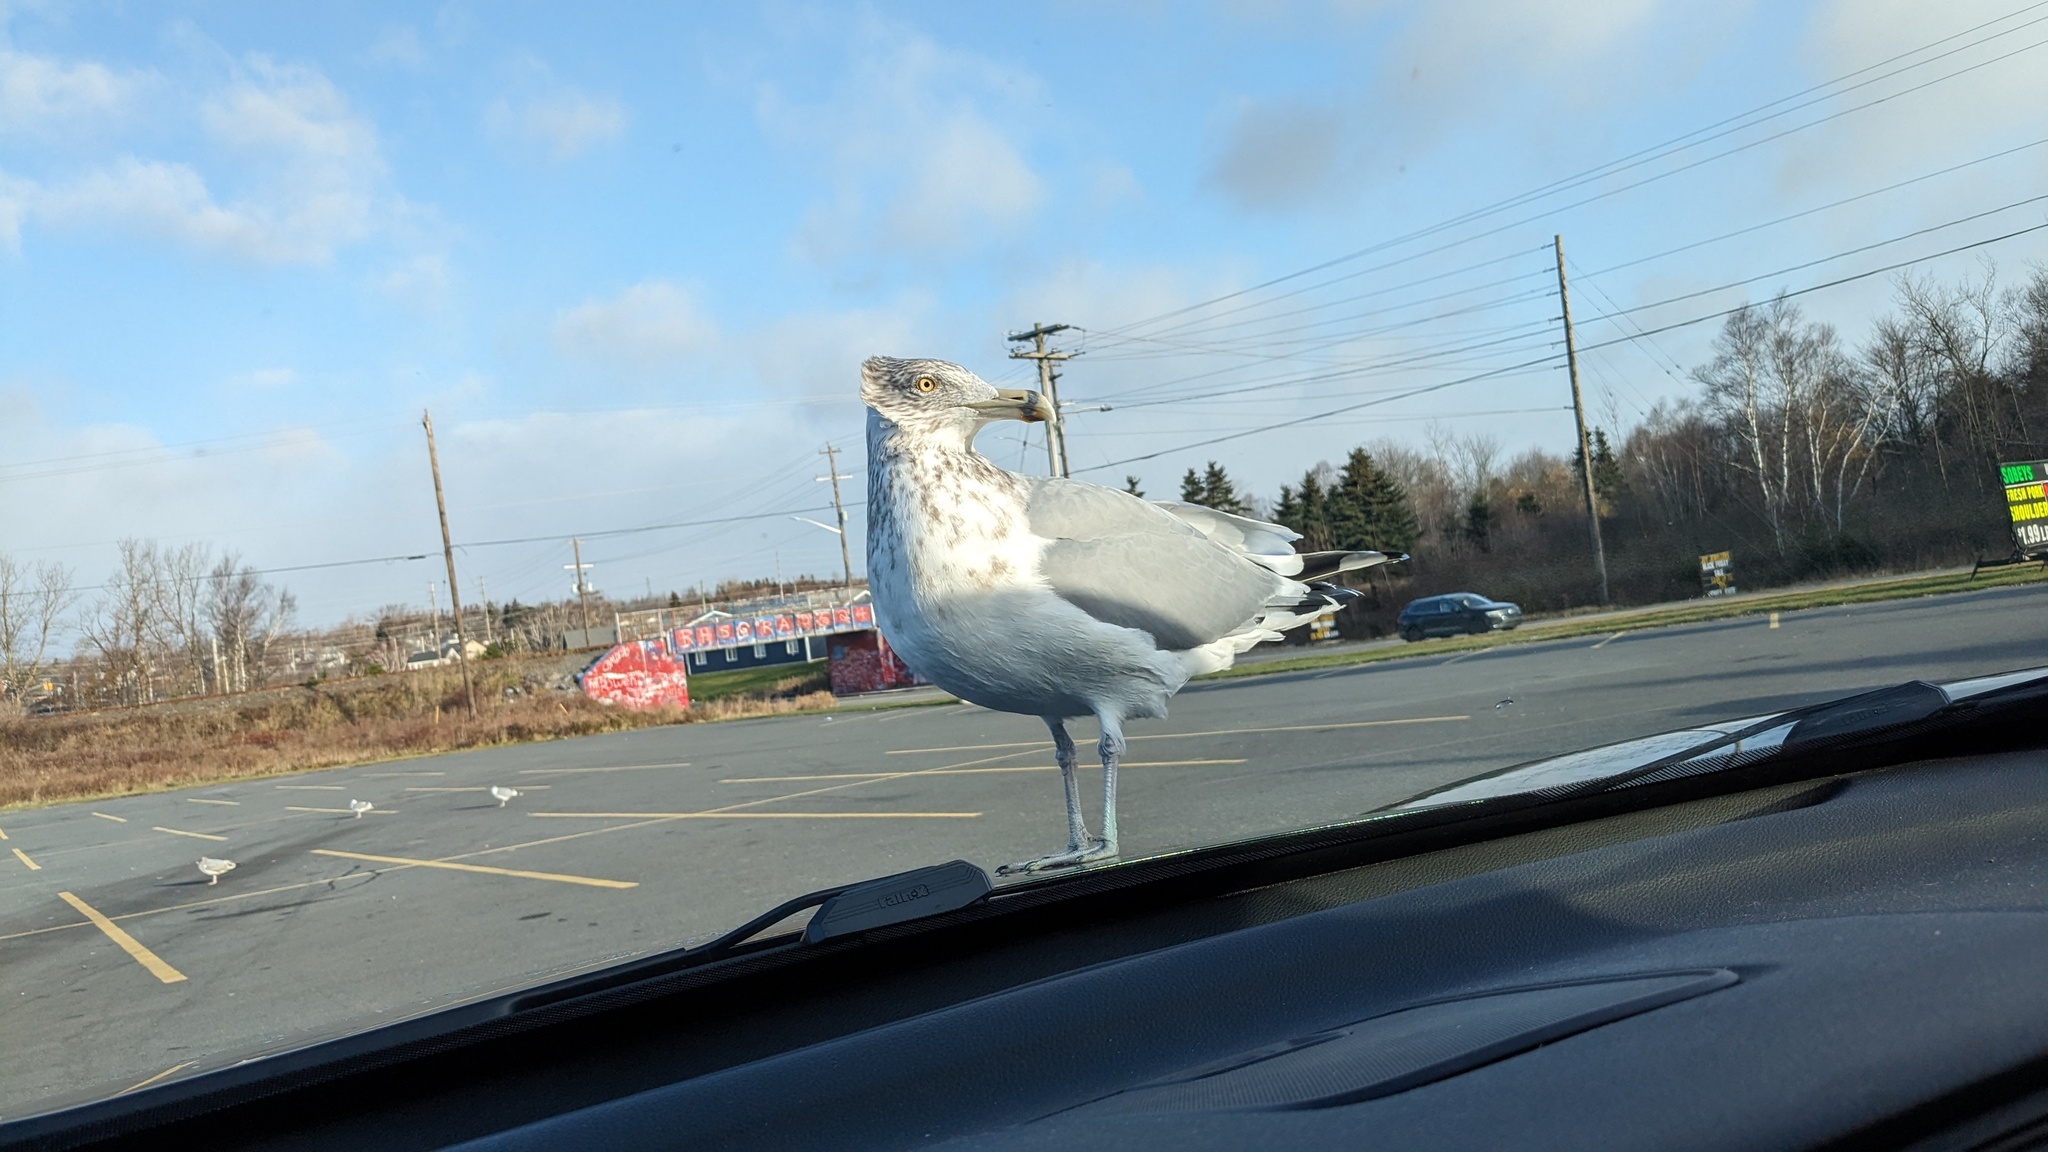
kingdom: Animalia
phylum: Chordata
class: Aves
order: Charadriiformes
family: Laridae
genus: Larus
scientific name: Larus argentatus
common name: Herring gull
